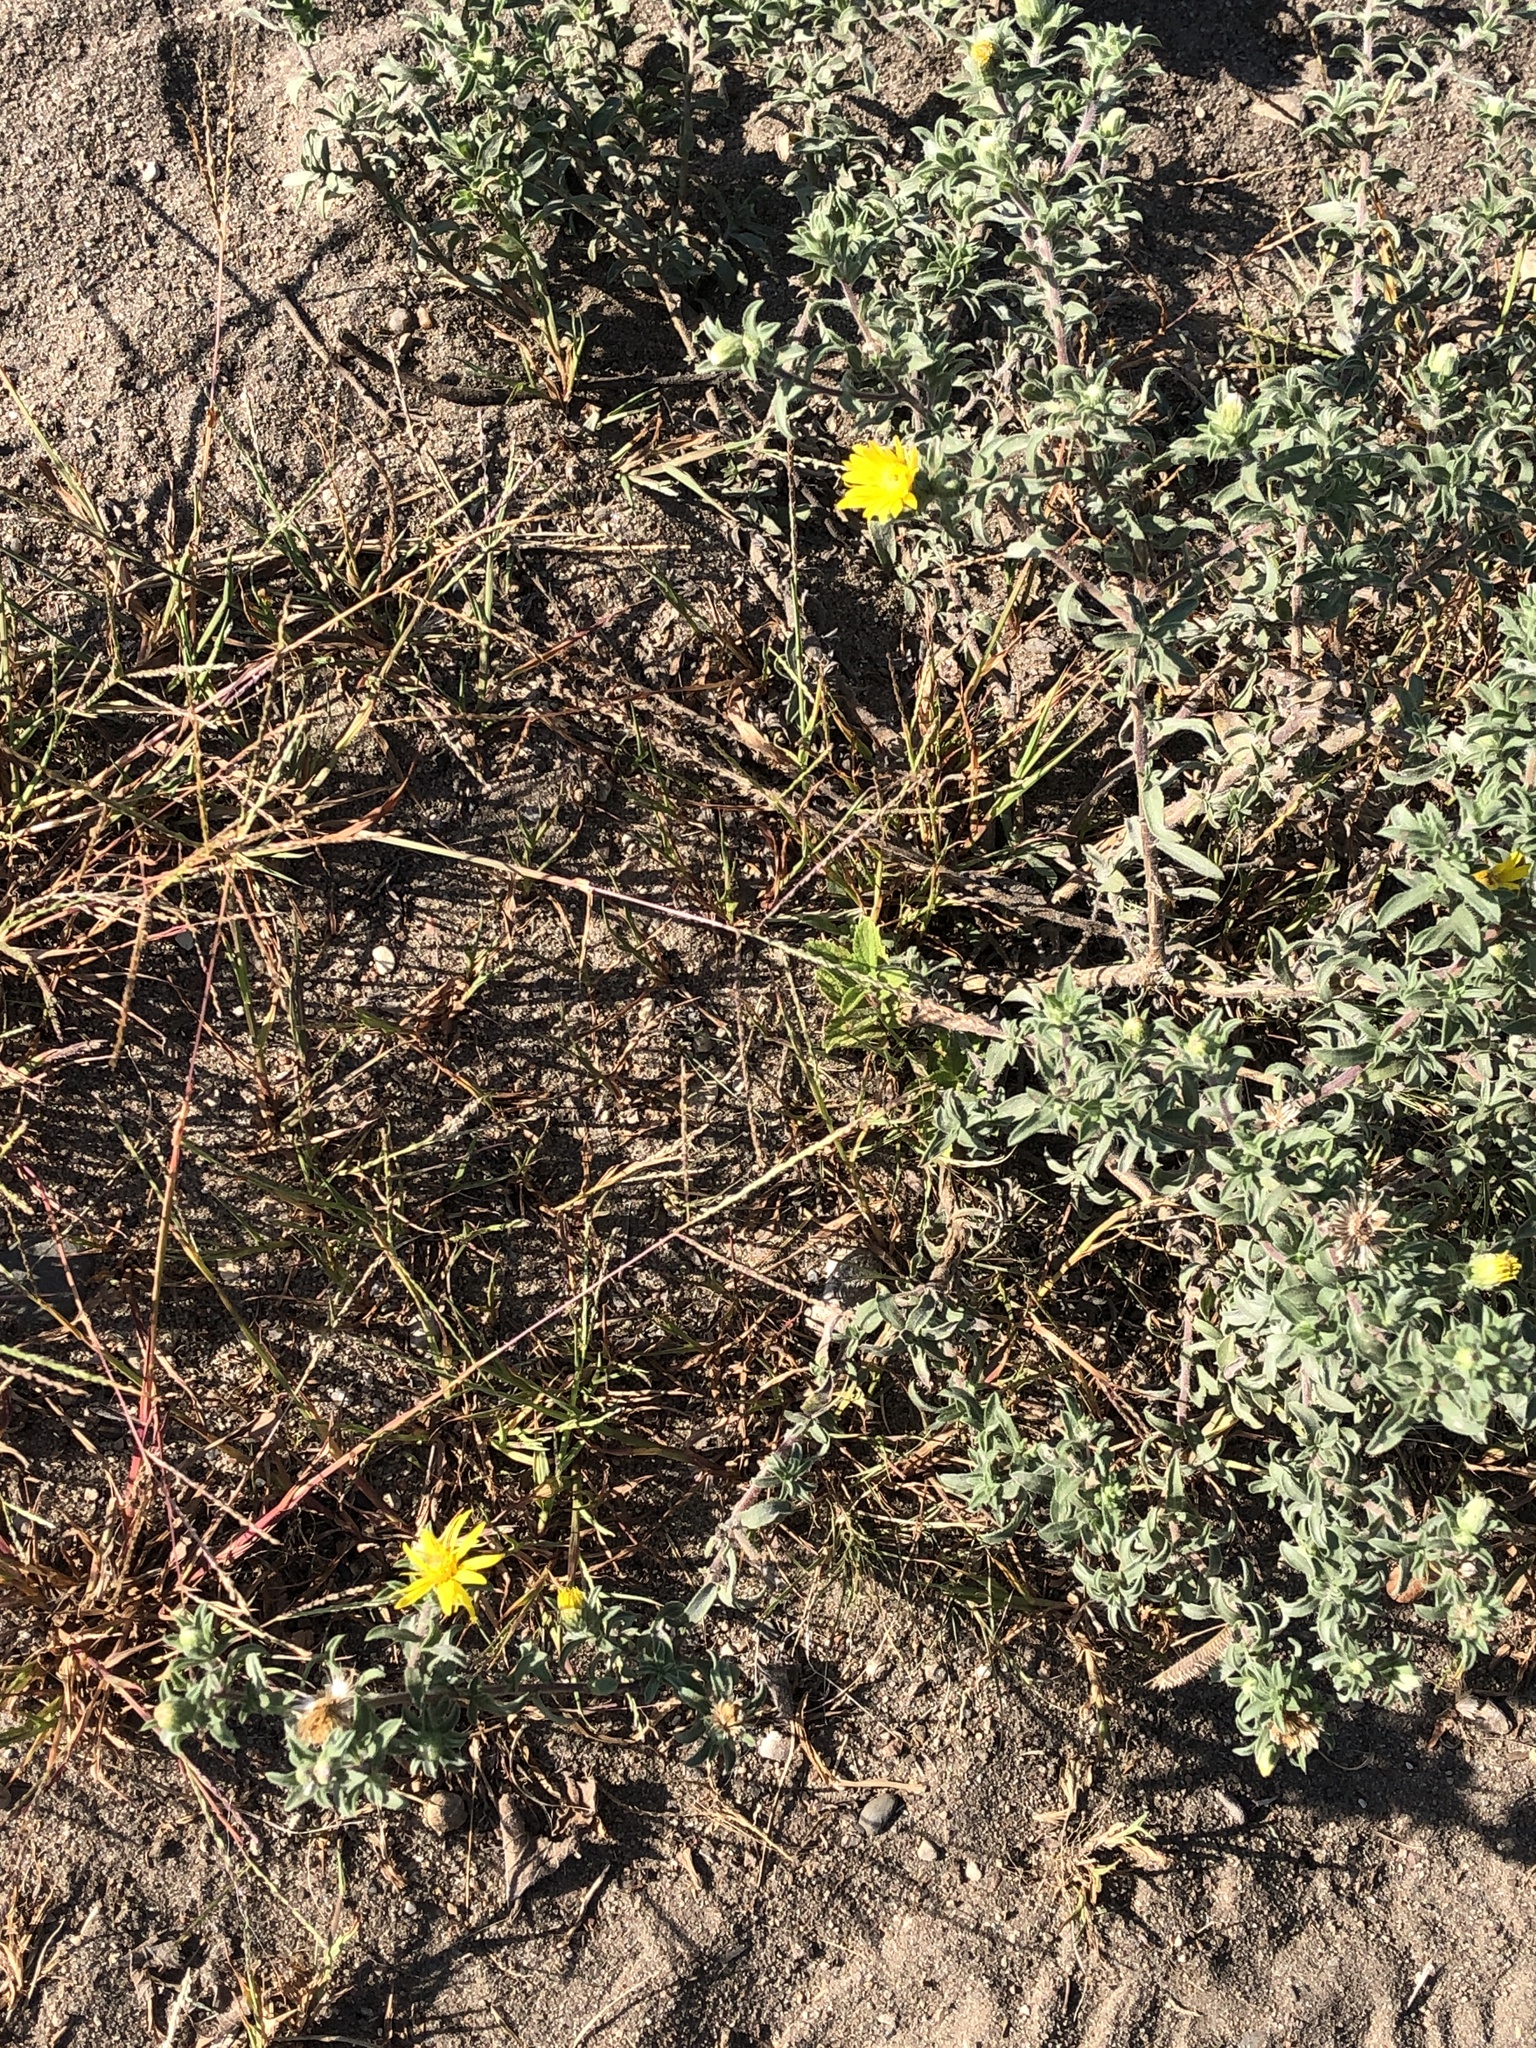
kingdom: Plantae
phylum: Tracheophyta
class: Magnoliopsida
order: Asterales
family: Asteraceae
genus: Heterotheca
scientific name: Heterotheca villosa
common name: Hairy false goldenaster
